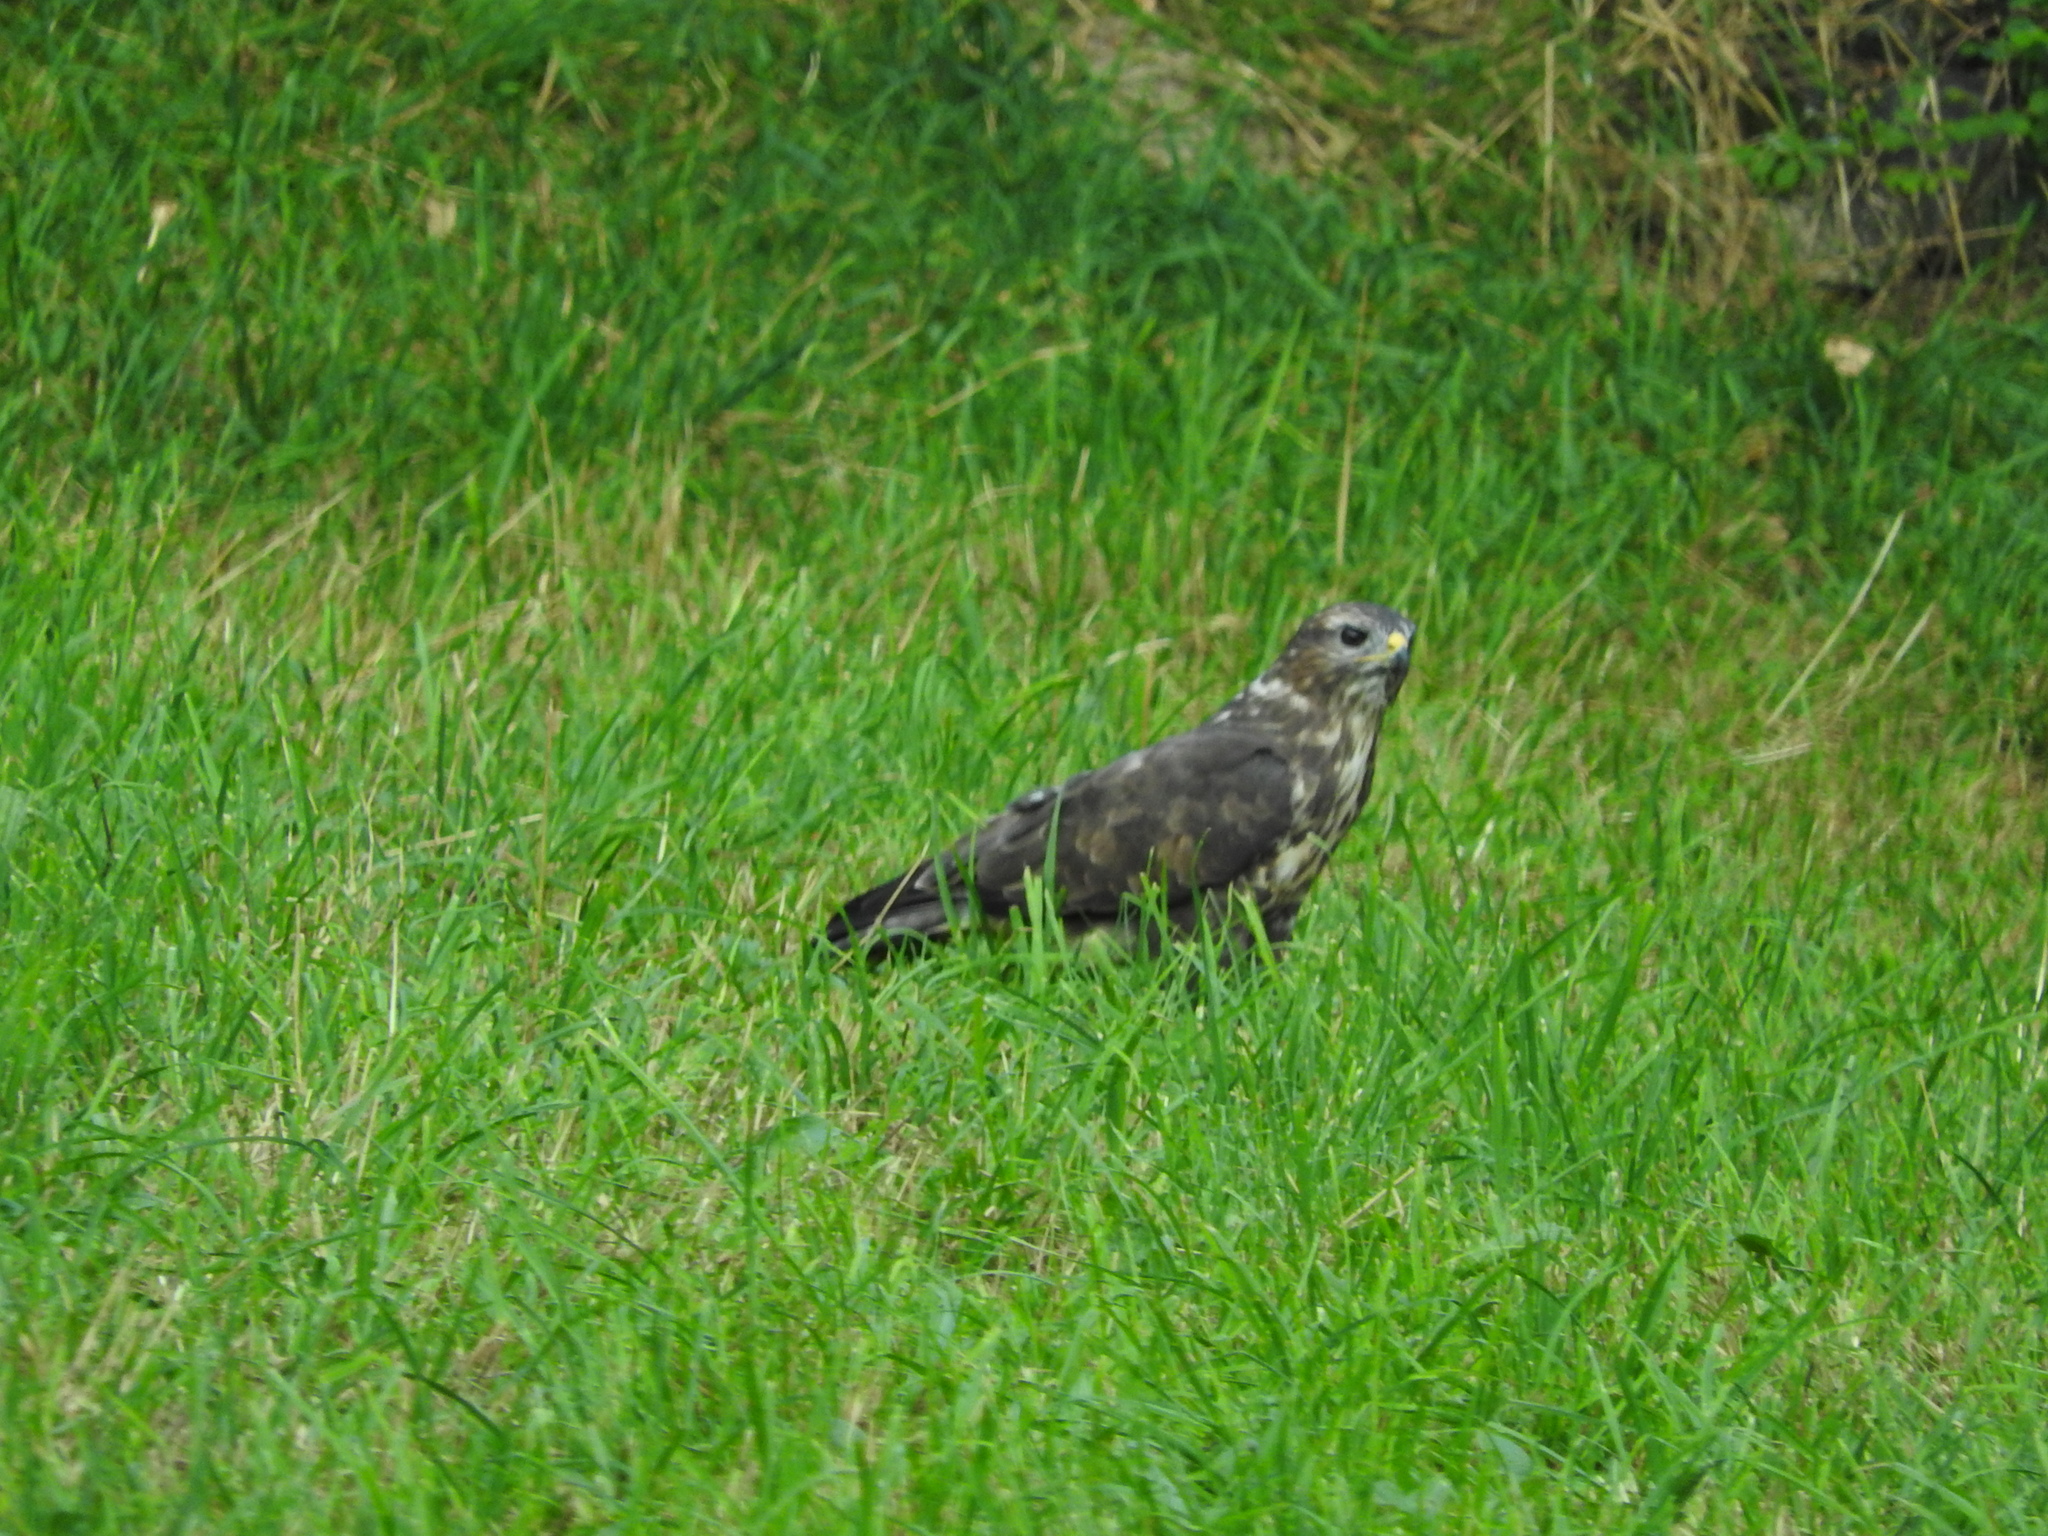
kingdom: Animalia
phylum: Chordata
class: Aves
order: Accipitriformes
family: Accipitridae
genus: Buteo
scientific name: Buteo buteo
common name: Common buzzard
